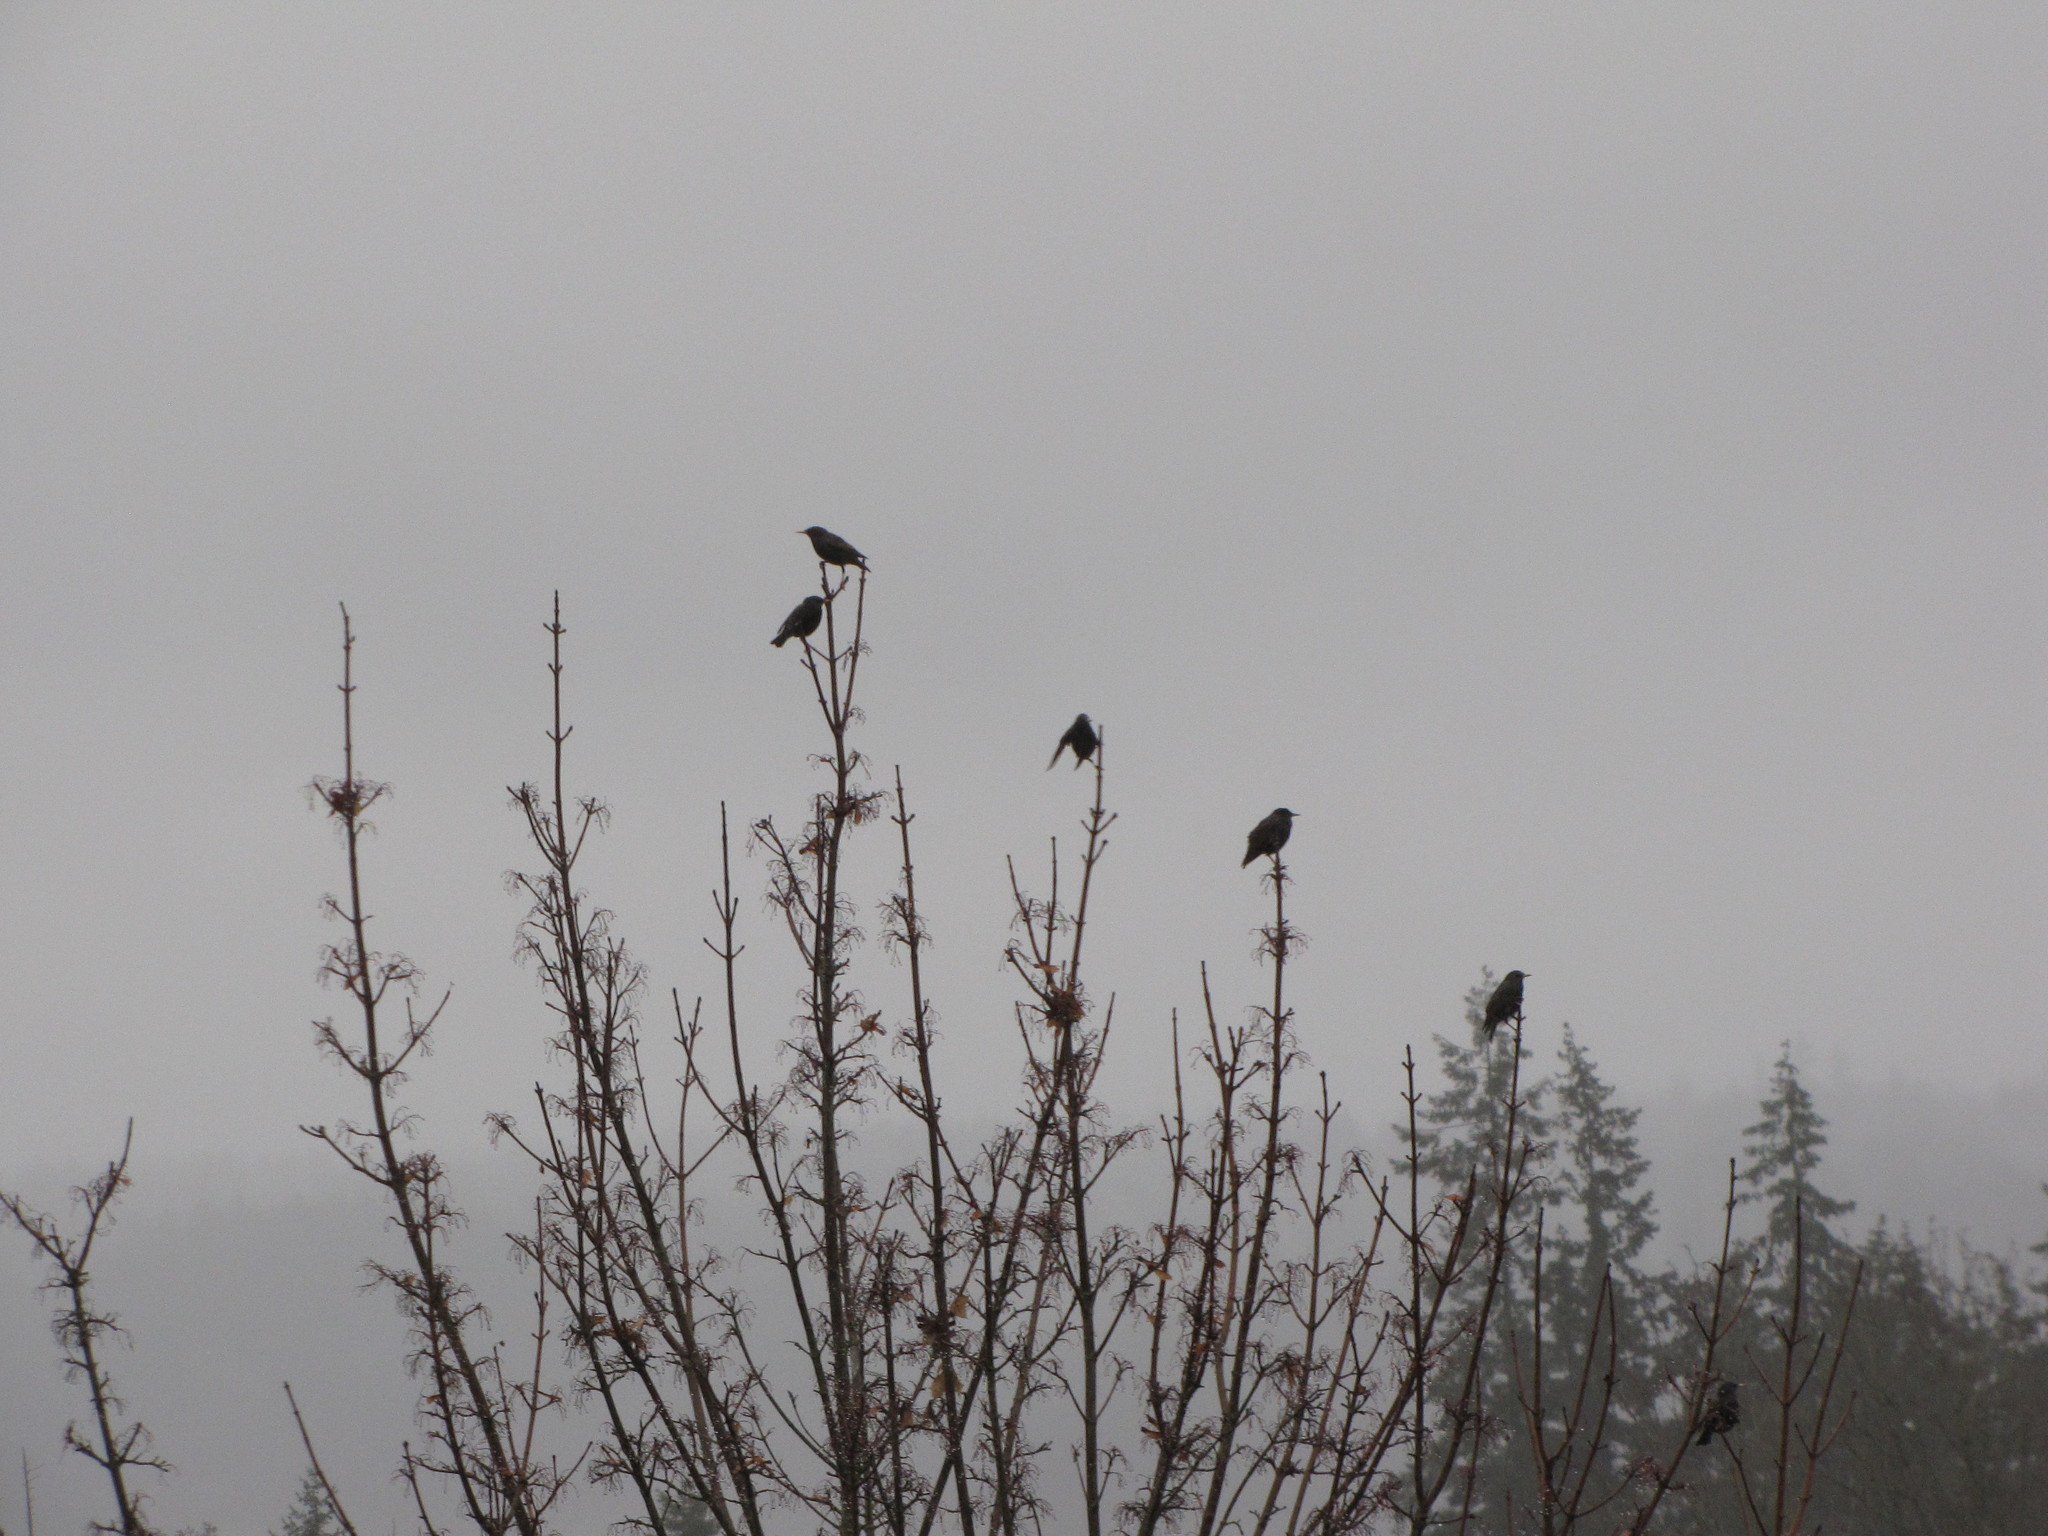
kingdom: Animalia
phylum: Chordata
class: Aves
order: Passeriformes
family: Sturnidae
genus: Sturnus
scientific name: Sturnus vulgaris
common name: Common starling
